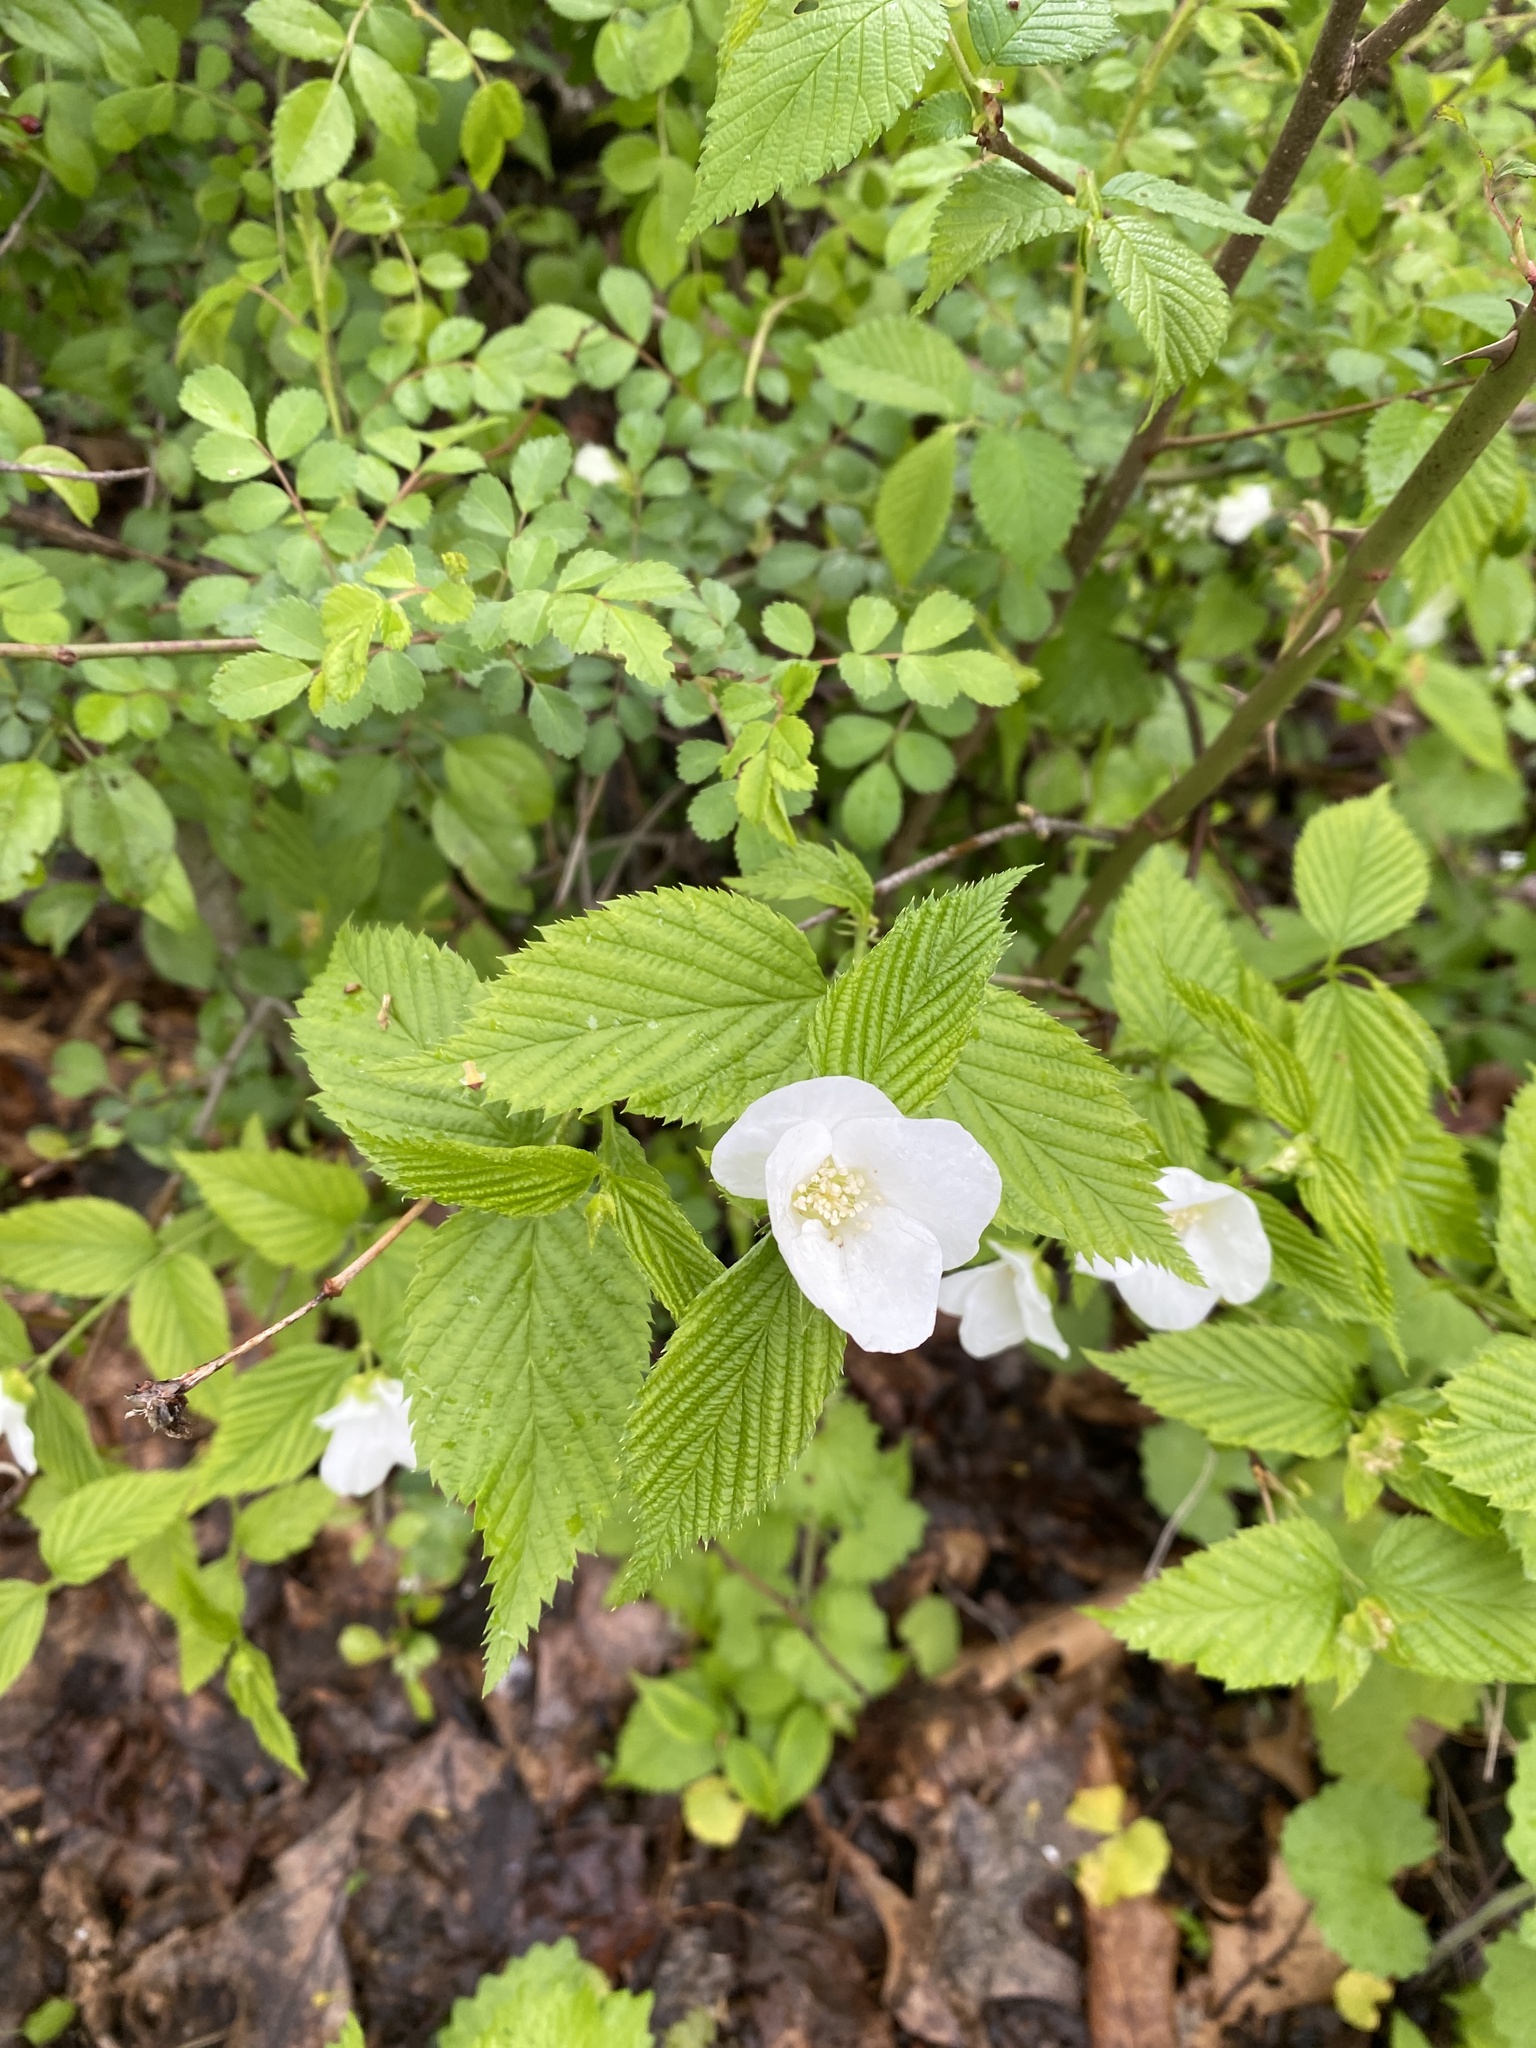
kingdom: Plantae
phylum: Tracheophyta
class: Magnoliopsida
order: Rosales
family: Rosaceae
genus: Rhodotypos
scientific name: Rhodotypos scandens
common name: Jetbead
